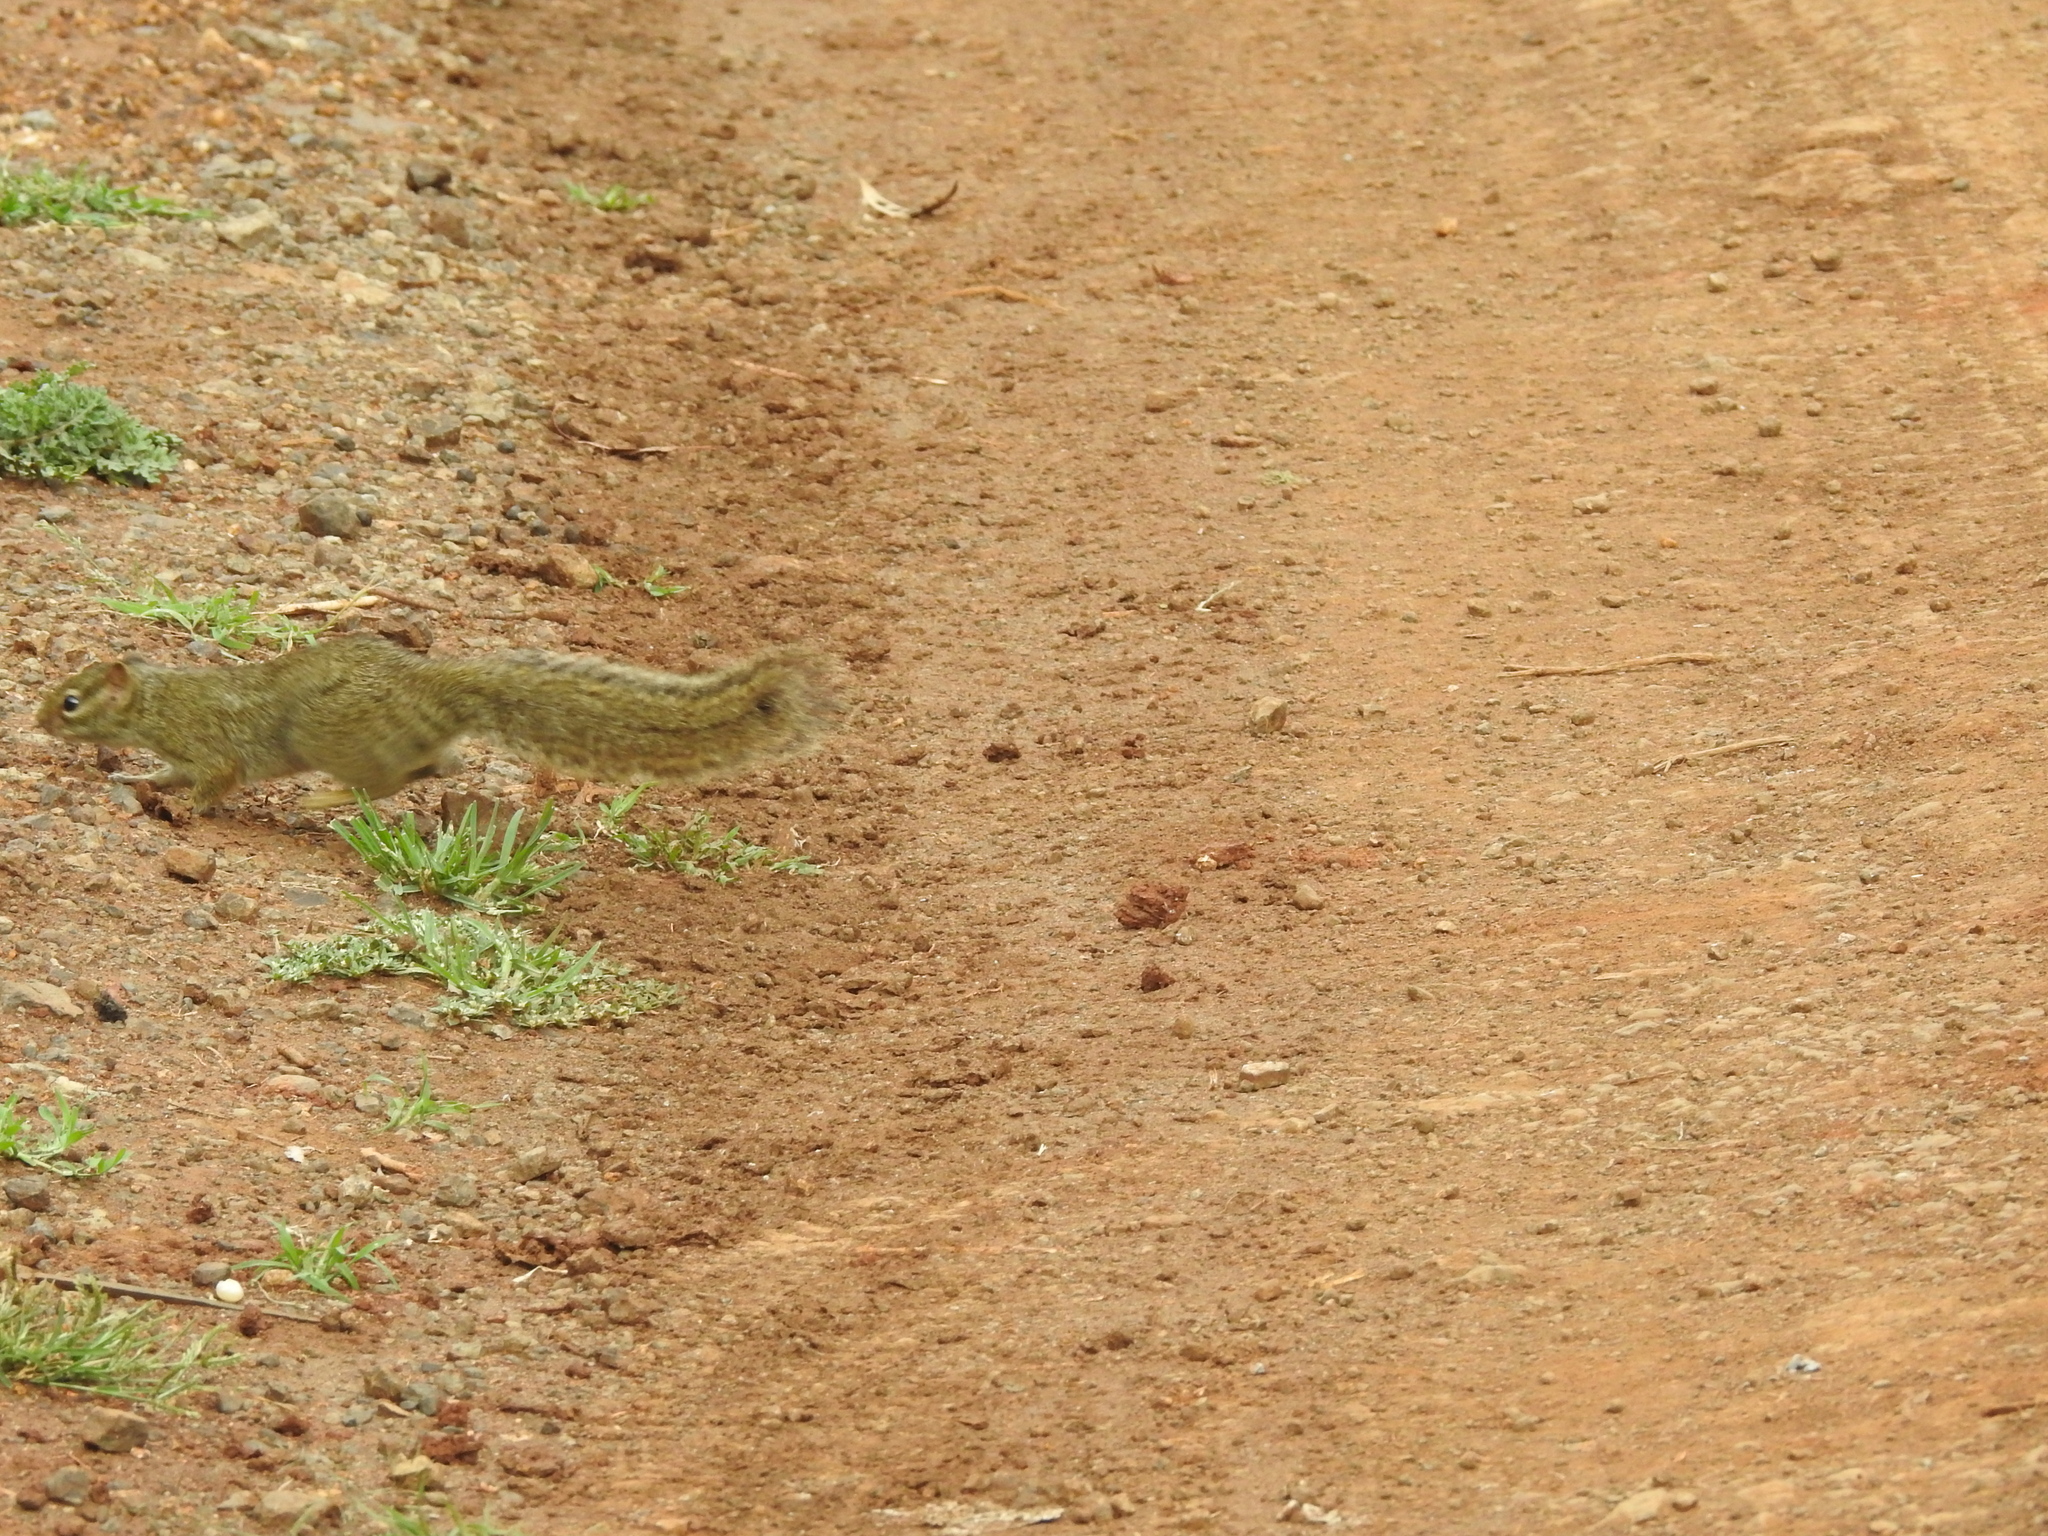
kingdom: Animalia
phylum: Chordata
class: Mammalia
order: Rodentia
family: Sciuridae
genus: Paraxerus
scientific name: Paraxerus ochraceus
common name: Ochre bush squirrel
